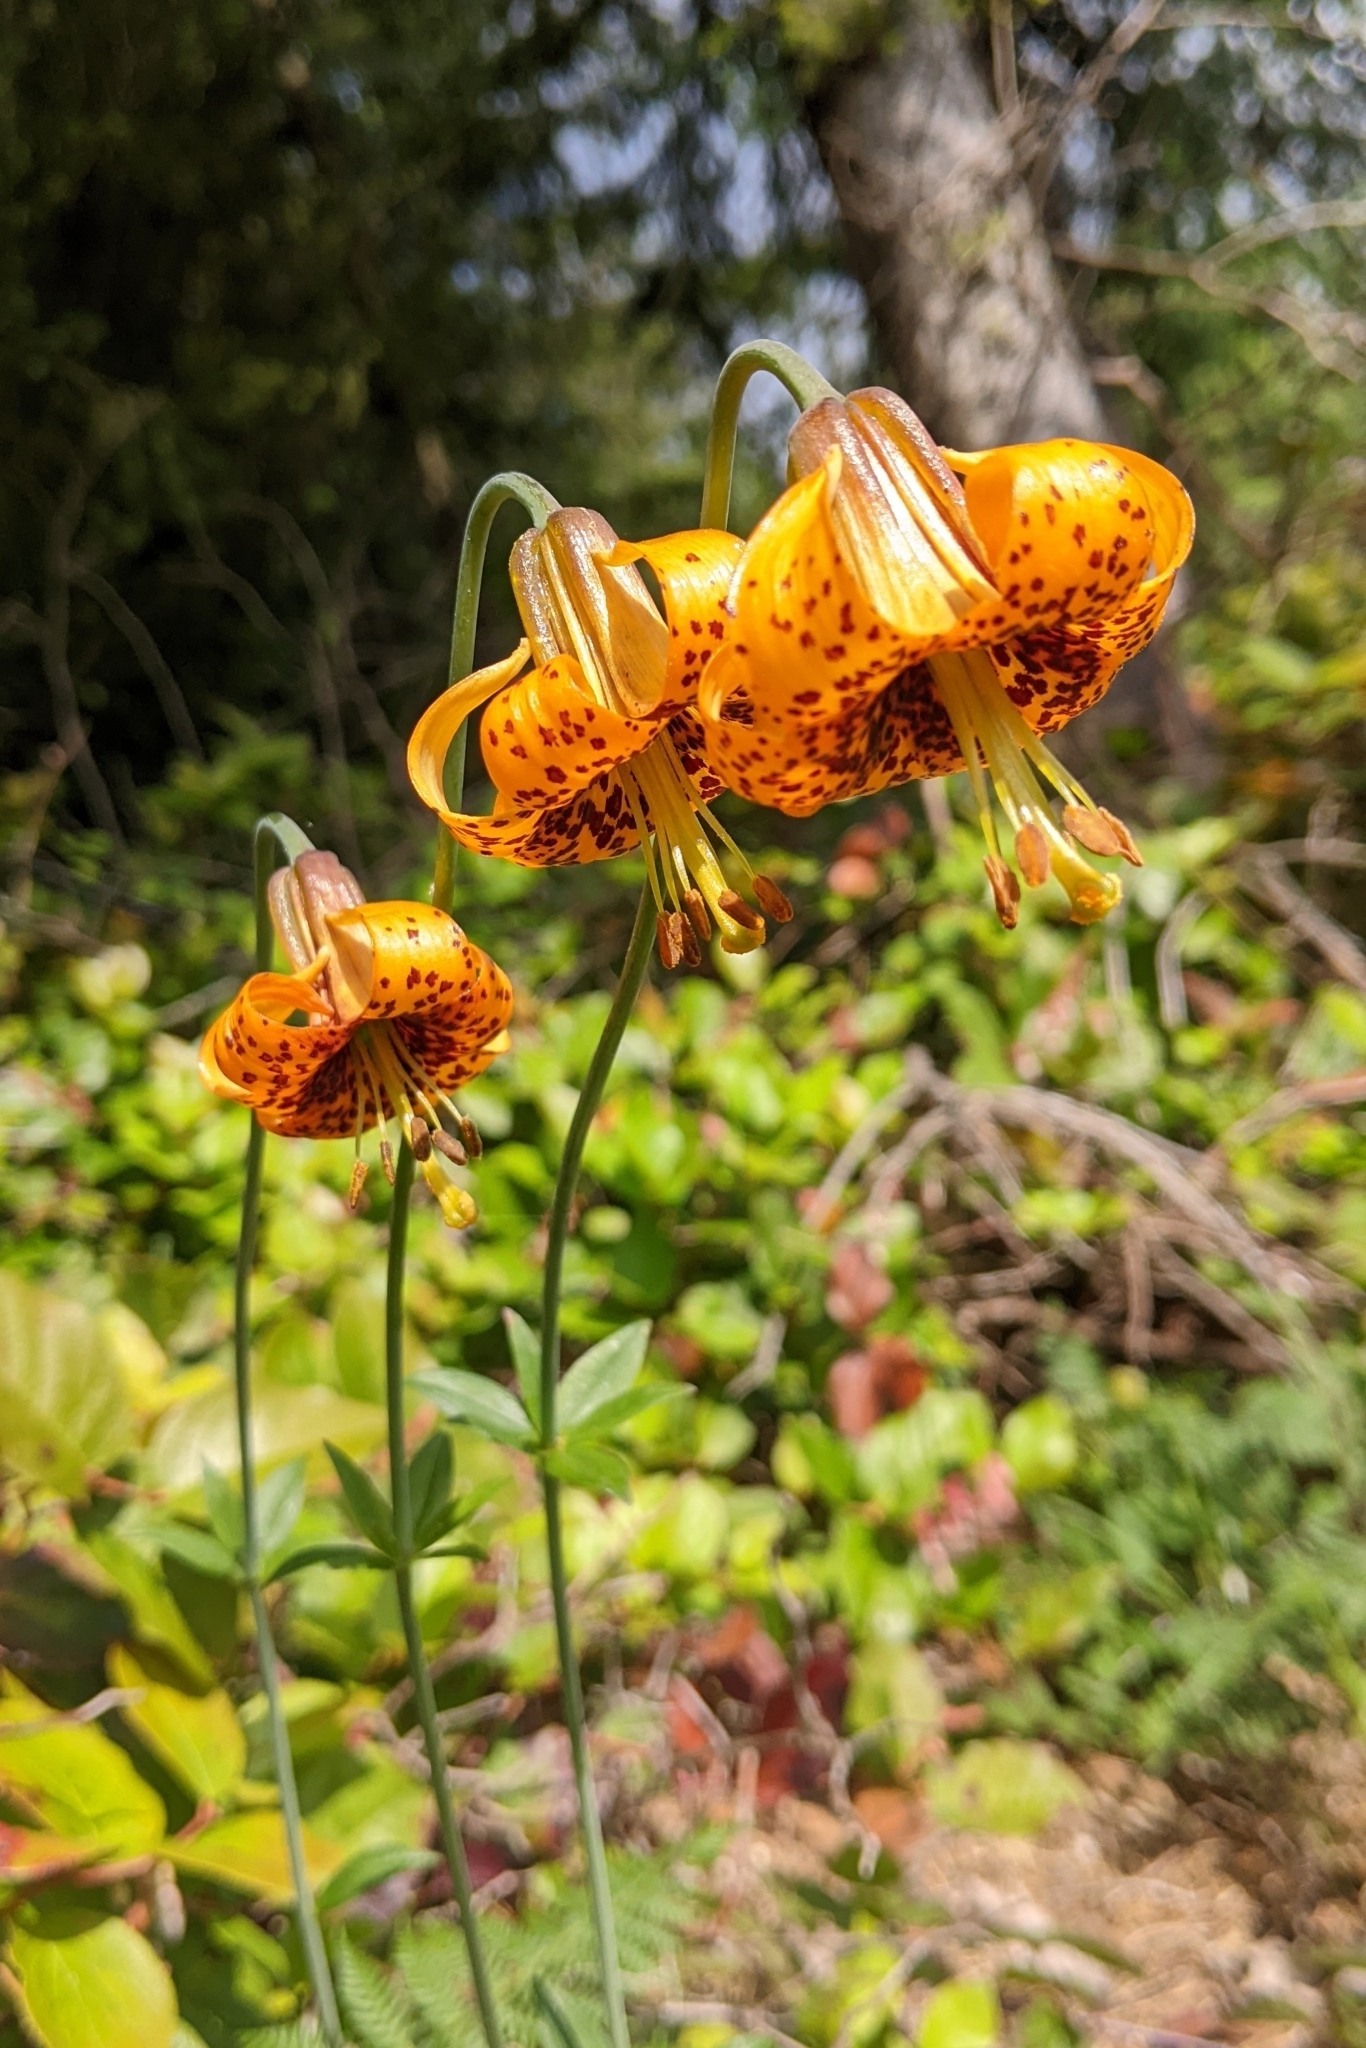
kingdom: Plantae
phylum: Tracheophyta
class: Liliopsida
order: Liliales
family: Liliaceae
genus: Lilium
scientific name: Lilium columbianum
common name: Columbia lily
